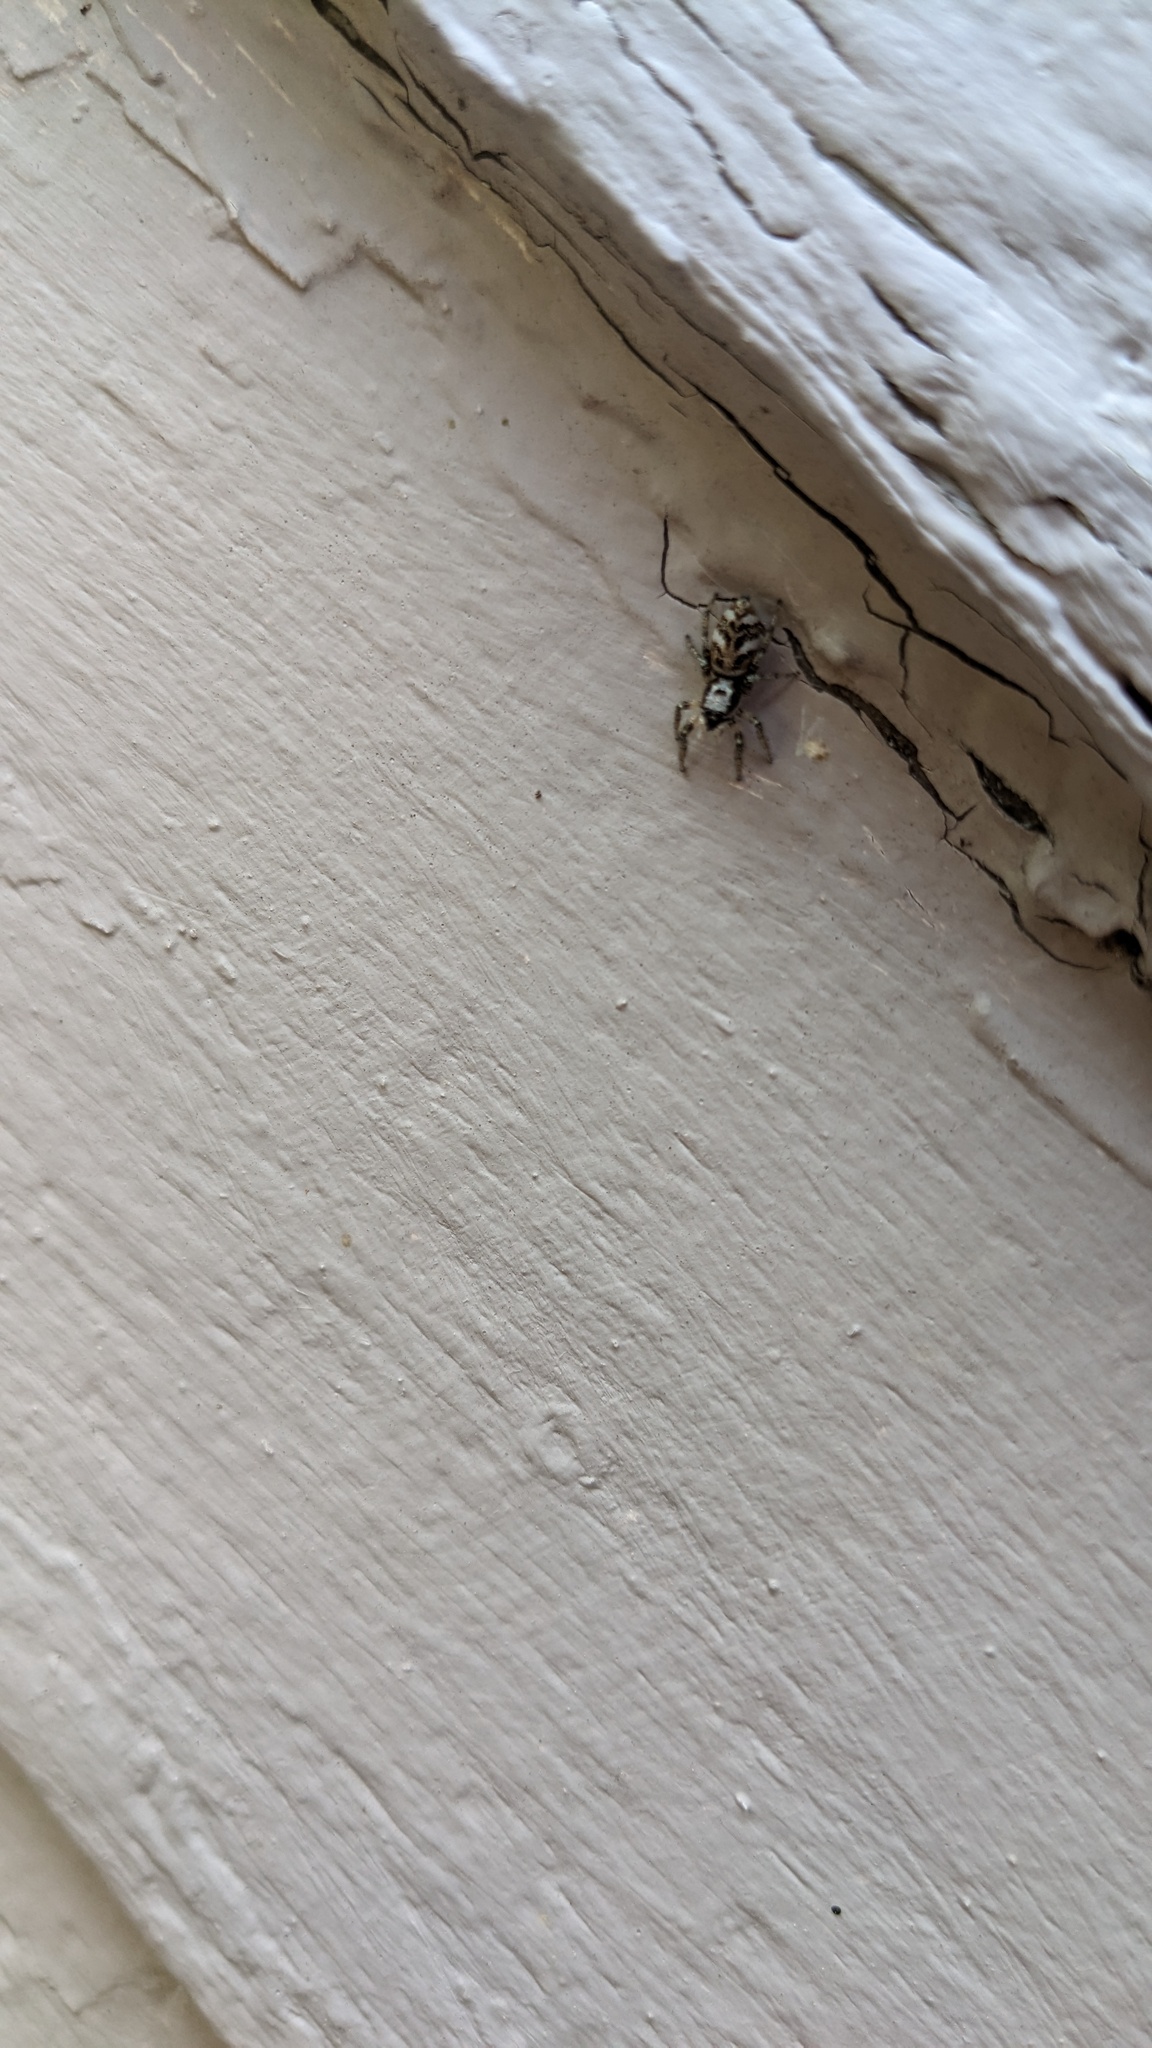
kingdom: Animalia
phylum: Arthropoda
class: Arachnida
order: Araneae
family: Salticidae
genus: Salticus
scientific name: Salticus scenicus
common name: Zebra jumper
